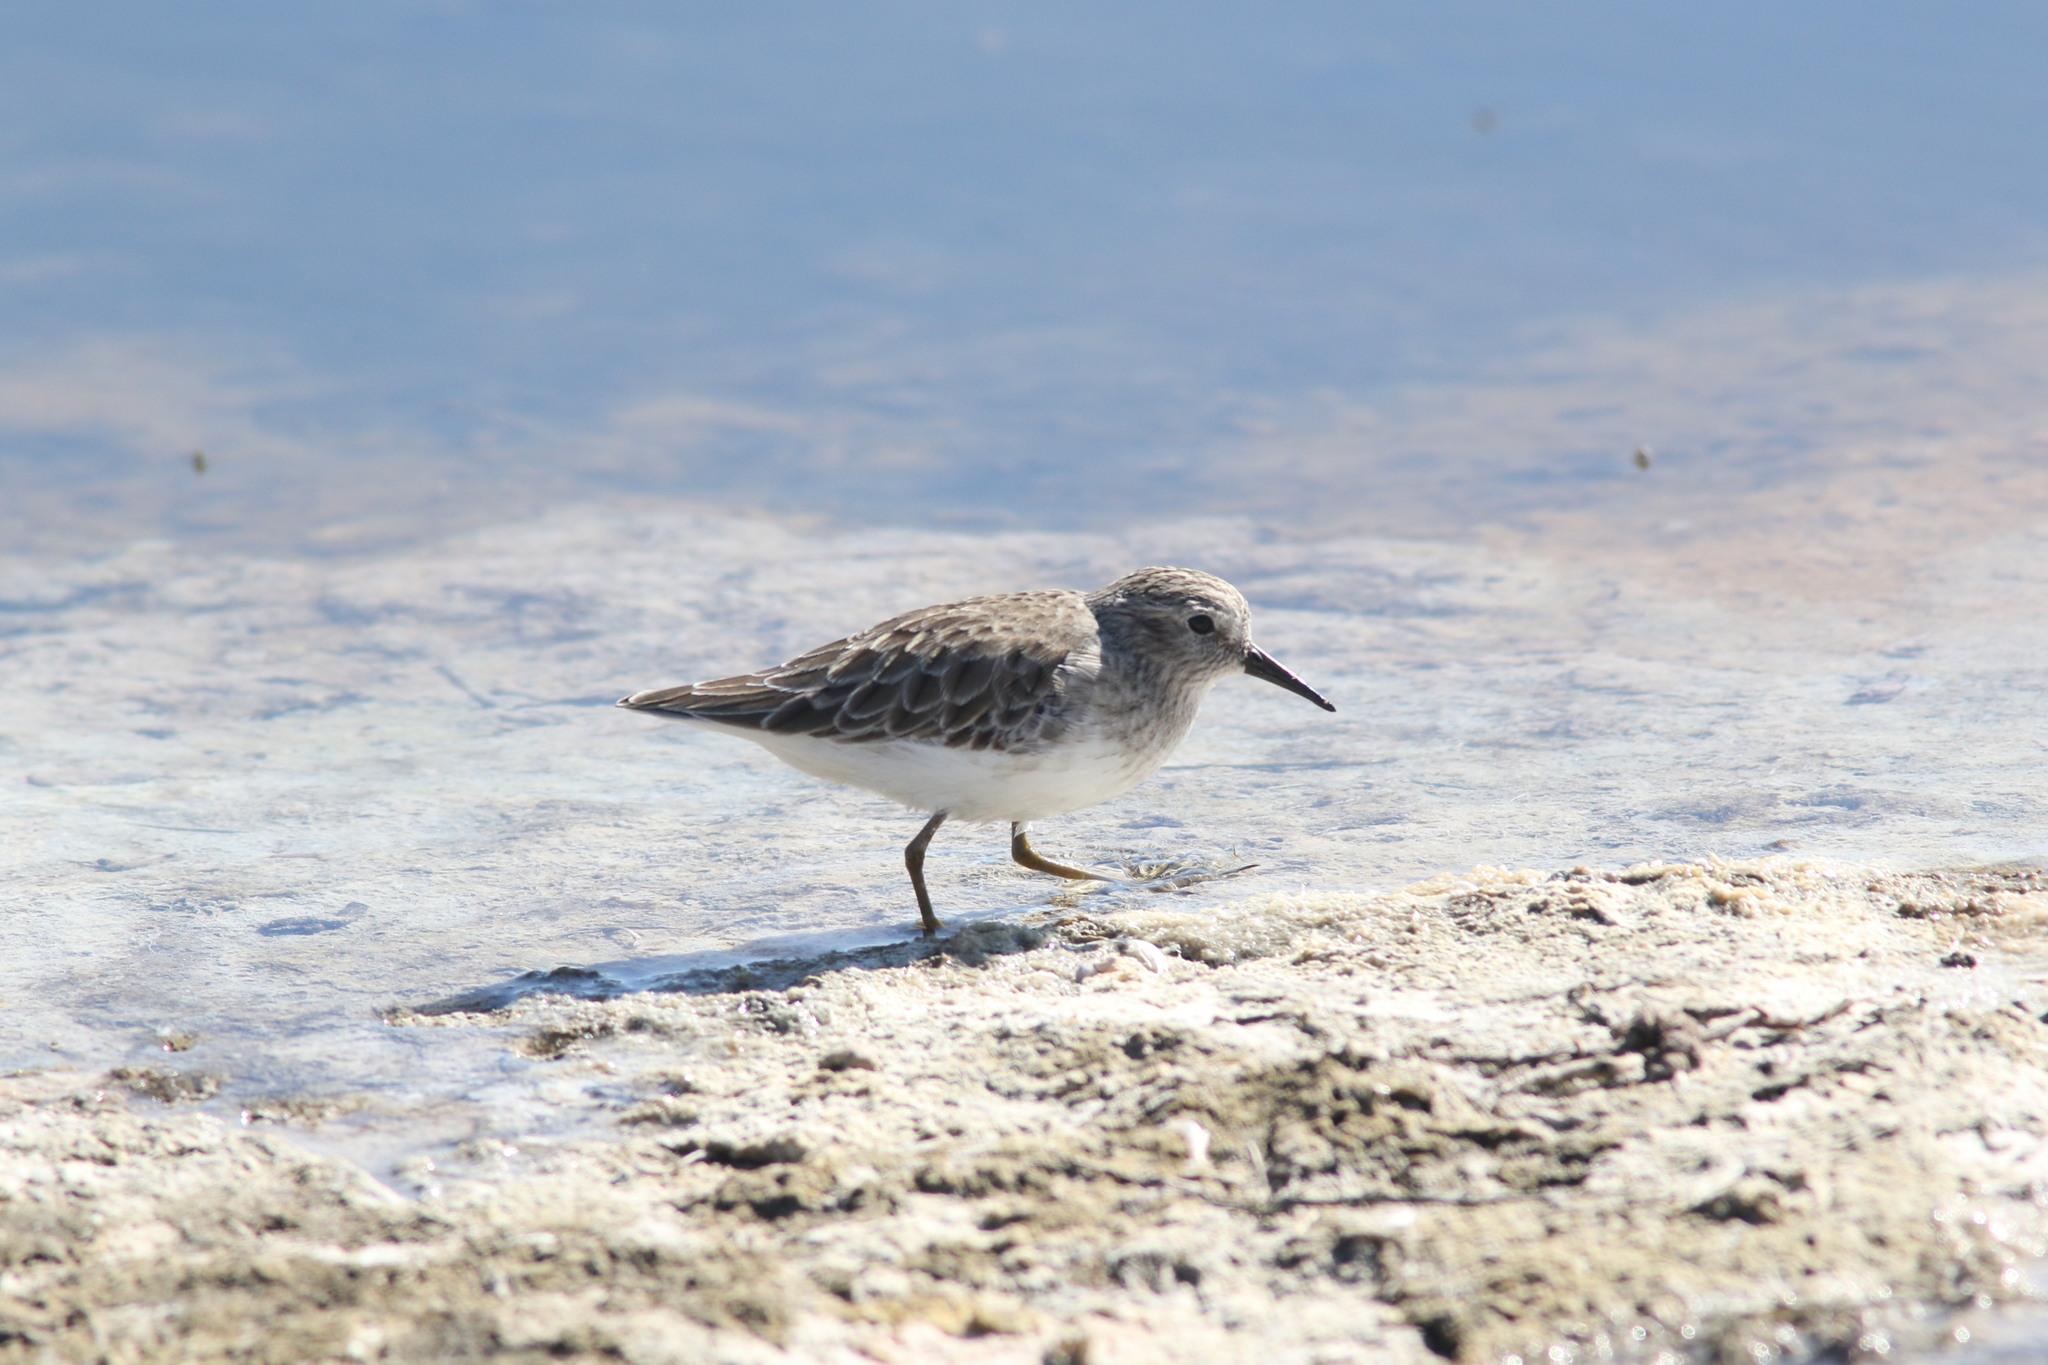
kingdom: Animalia
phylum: Chordata
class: Aves
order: Charadriiformes
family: Scolopacidae
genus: Calidris
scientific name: Calidris minutilla
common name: Least sandpiper
